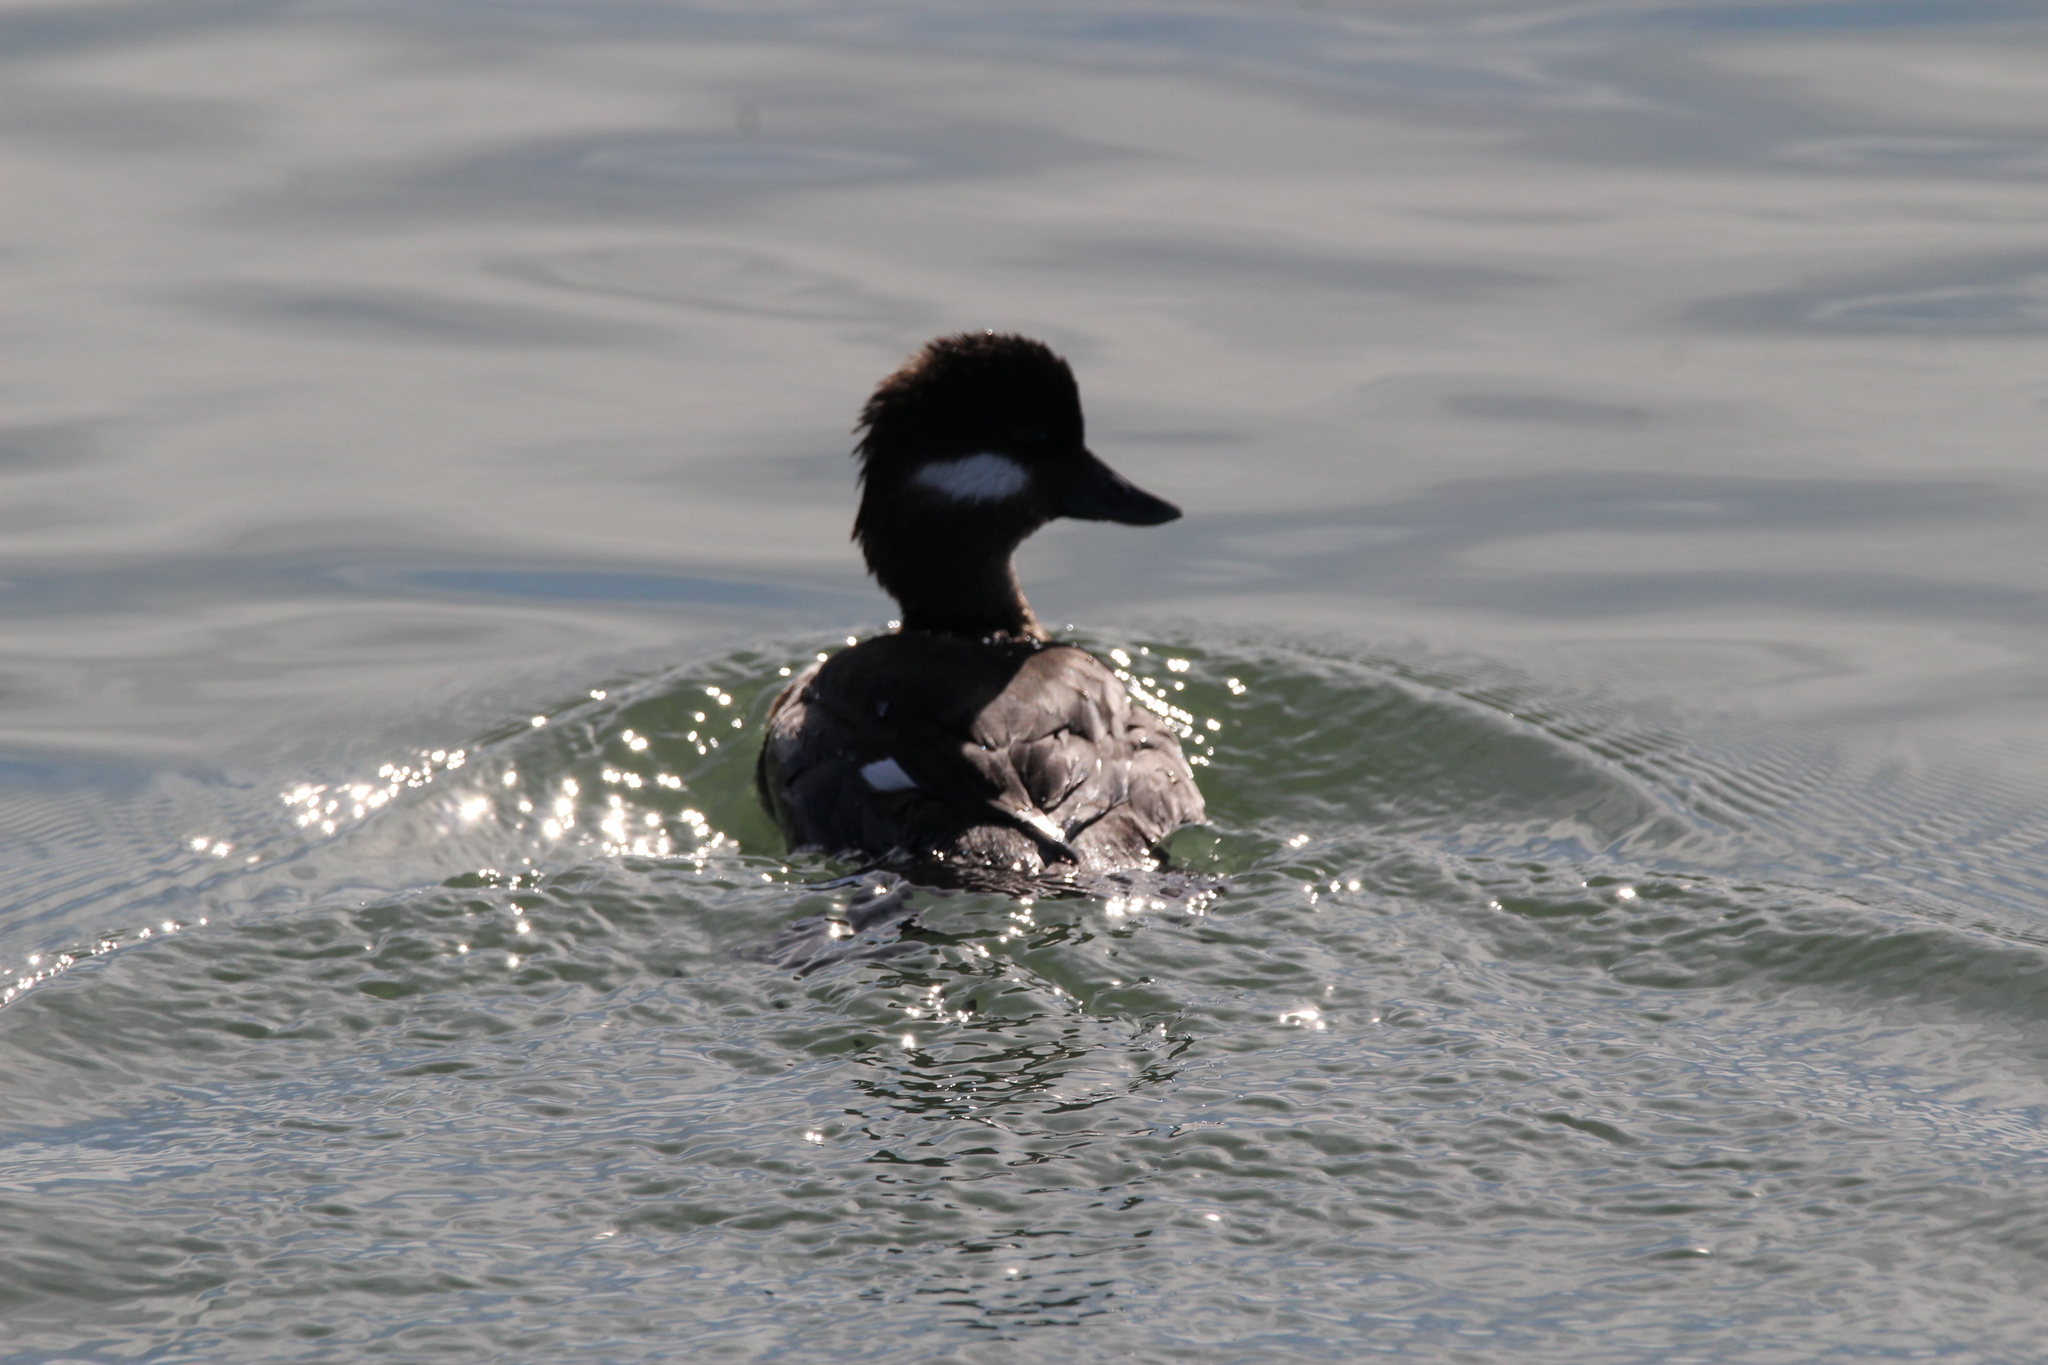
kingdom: Animalia
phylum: Chordata
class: Aves
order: Anseriformes
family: Anatidae
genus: Bucephala
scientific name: Bucephala albeola
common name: Bufflehead
